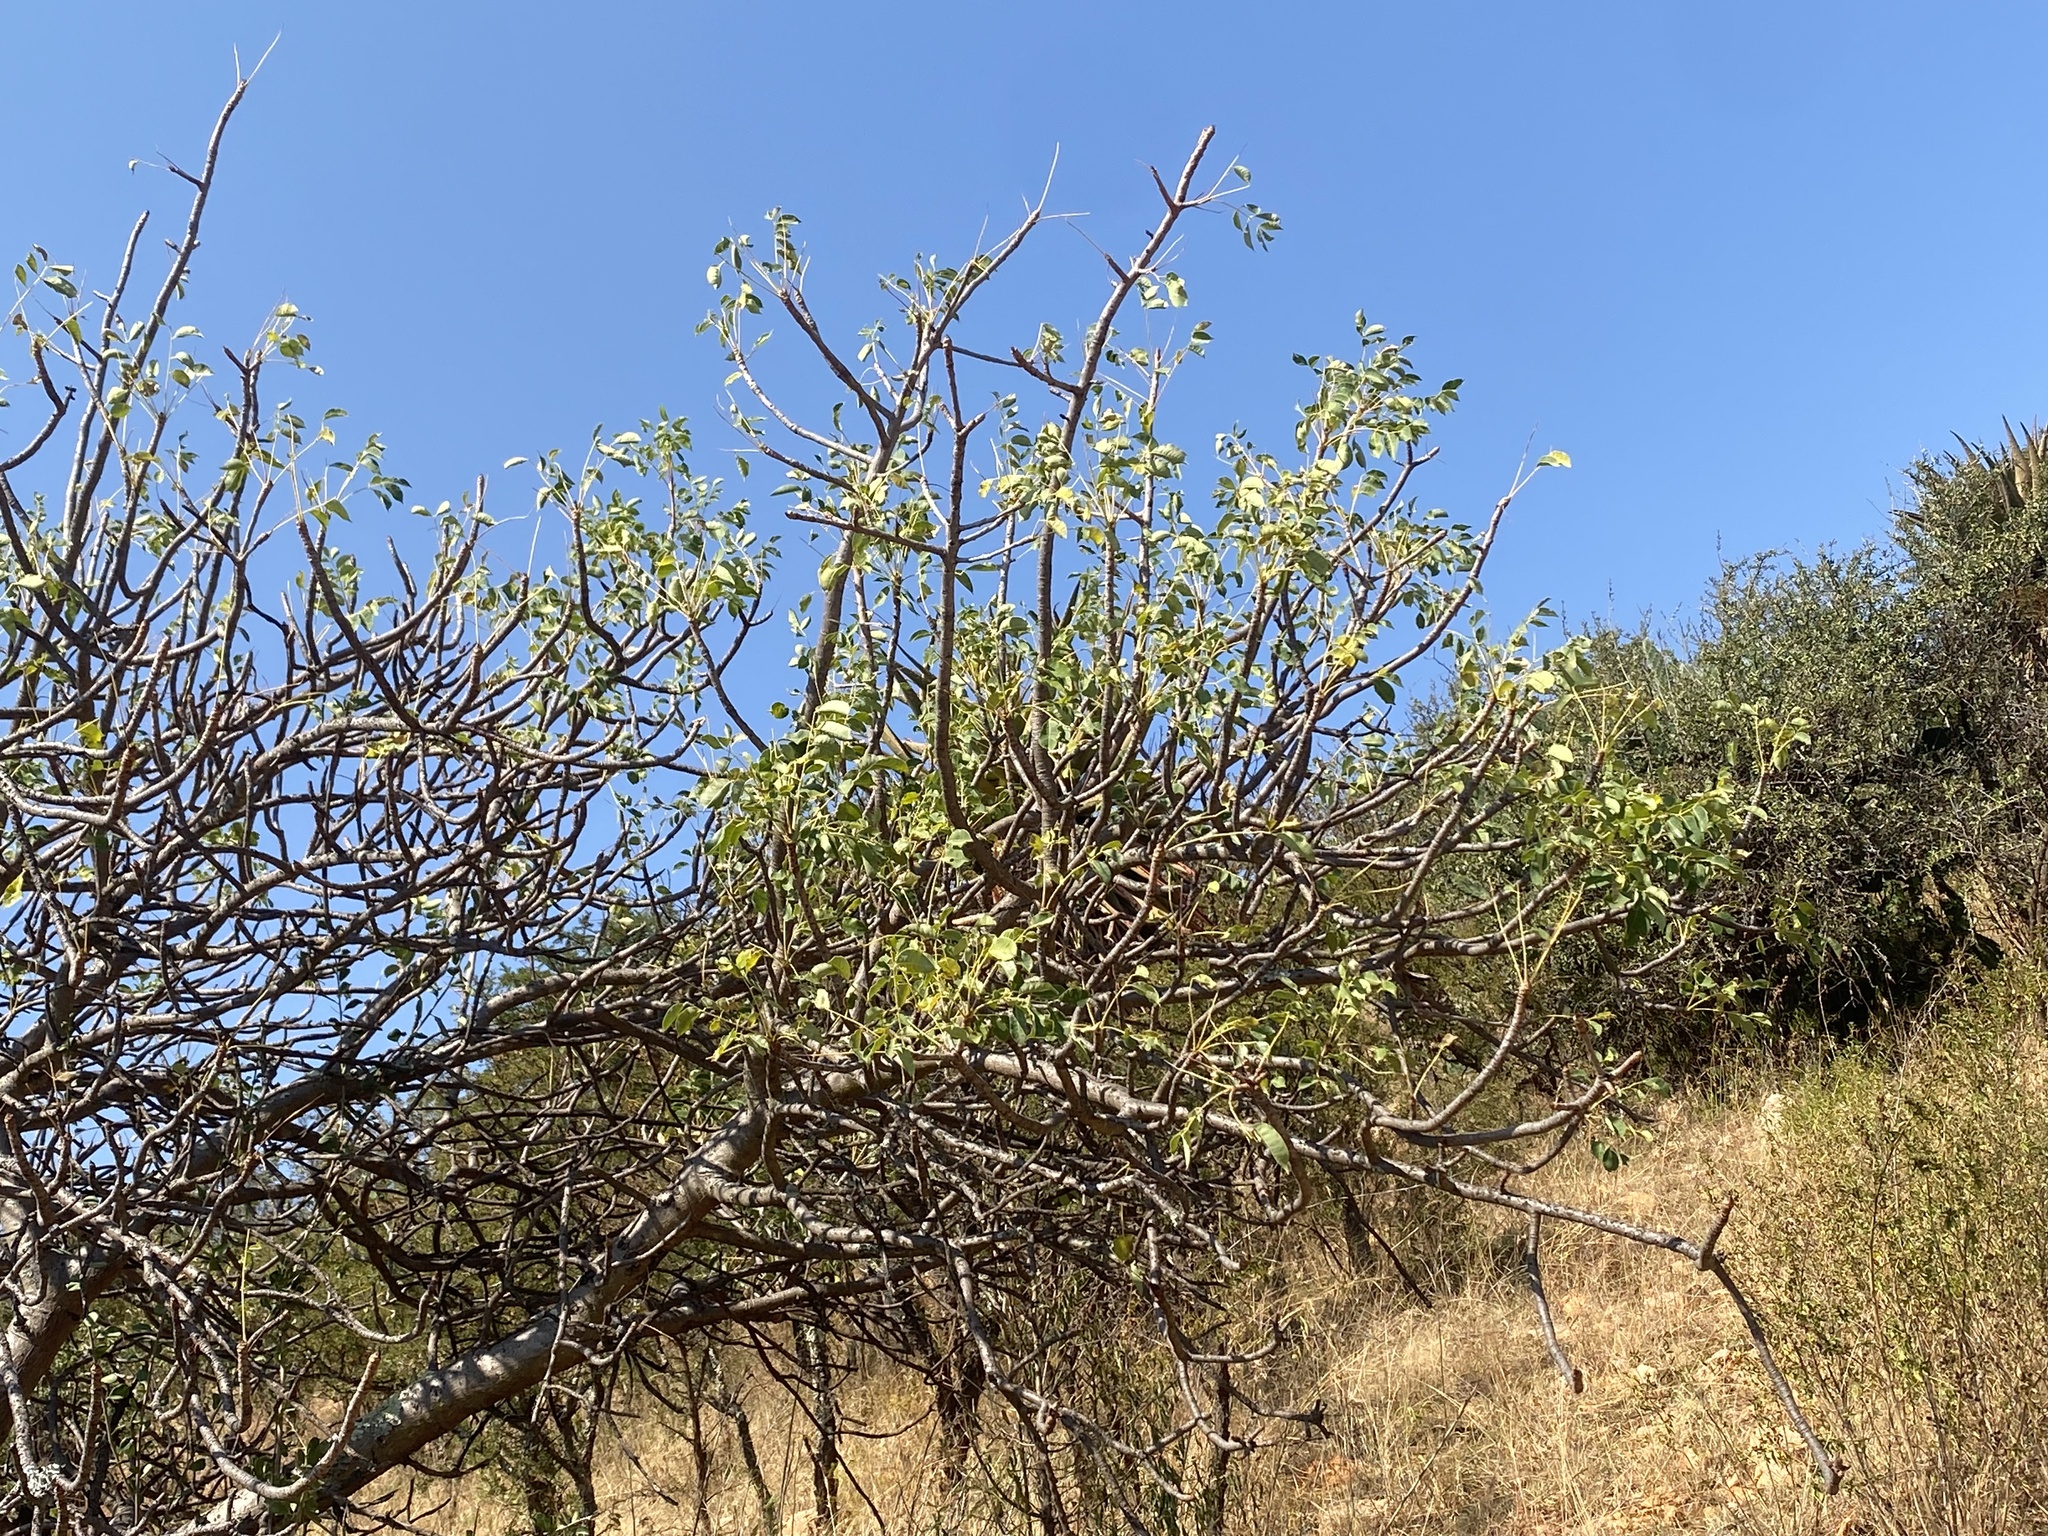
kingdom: Plantae
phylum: Tracheophyta
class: Magnoliopsida
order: Sapindales
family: Anacardiaceae
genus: Sclerocarya
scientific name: Sclerocarya birrea
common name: Marula
